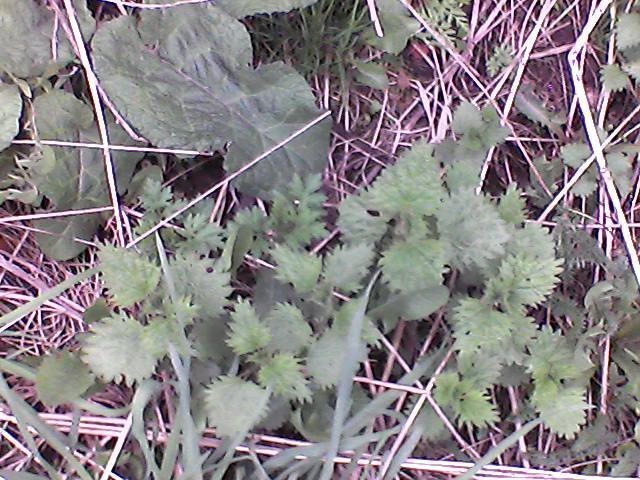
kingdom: Plantae
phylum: Tracheophyta
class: Magnoliopsida
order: Rosales
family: Urticaceae
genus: Urtica
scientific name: Urtica dioica
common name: Common nettle
